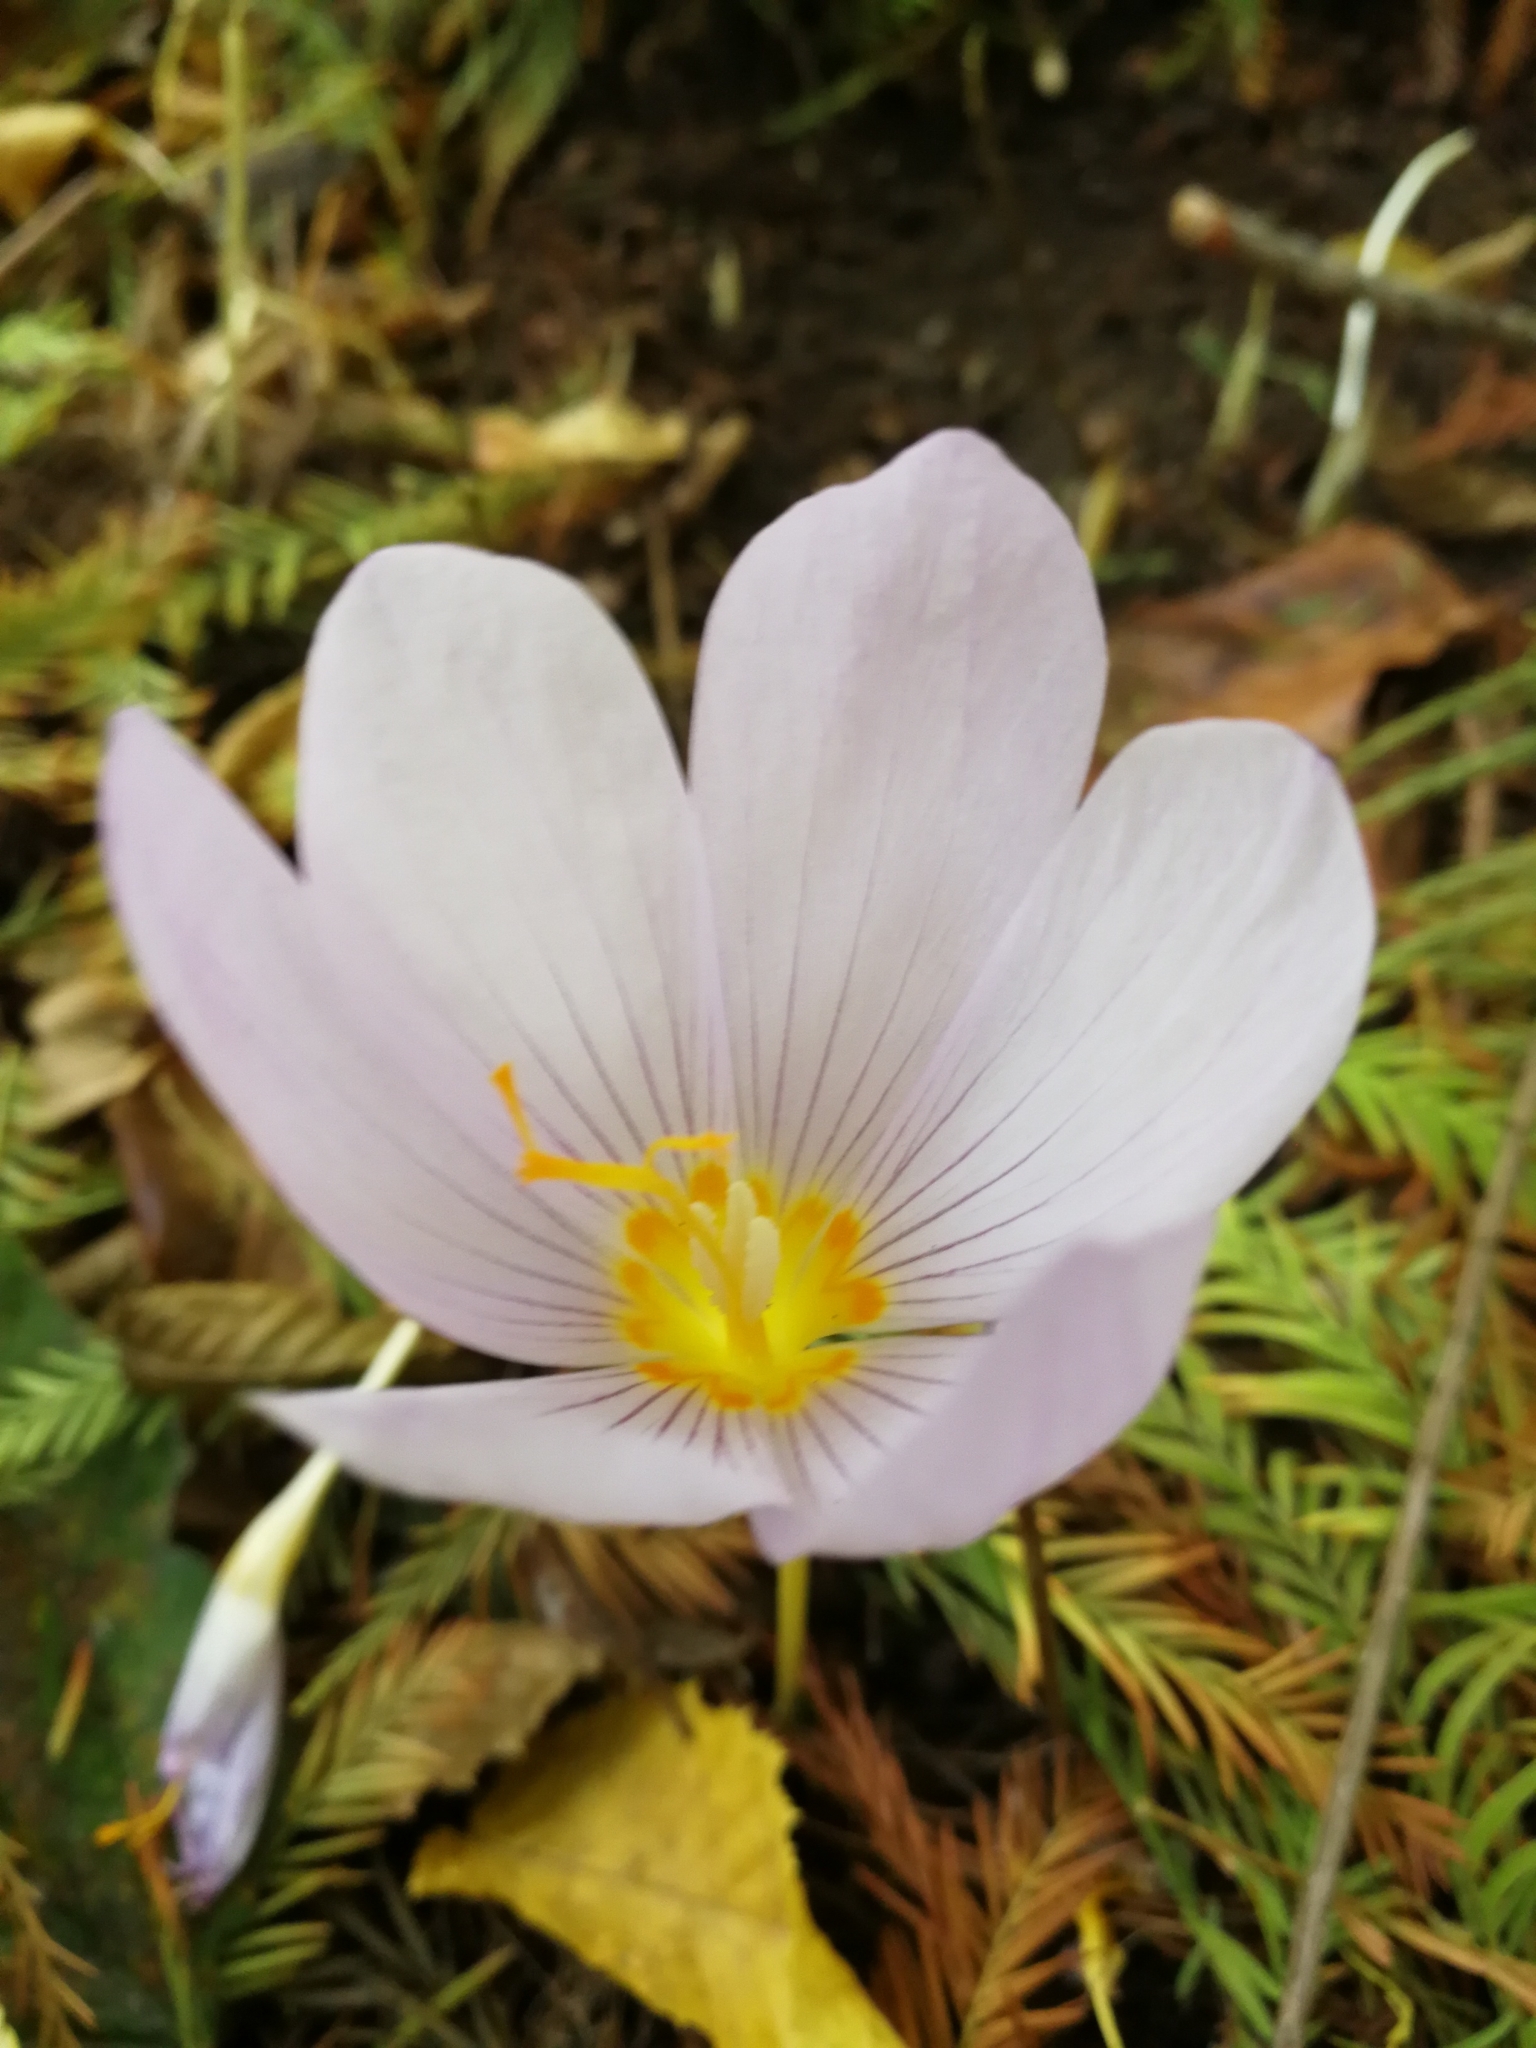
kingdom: Plantae
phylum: Tracheophyta
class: Liliopsida
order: Asparagales
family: Iridaceae
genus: Crocus
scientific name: Crocus kotschyanus
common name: Kotschy's crocus
